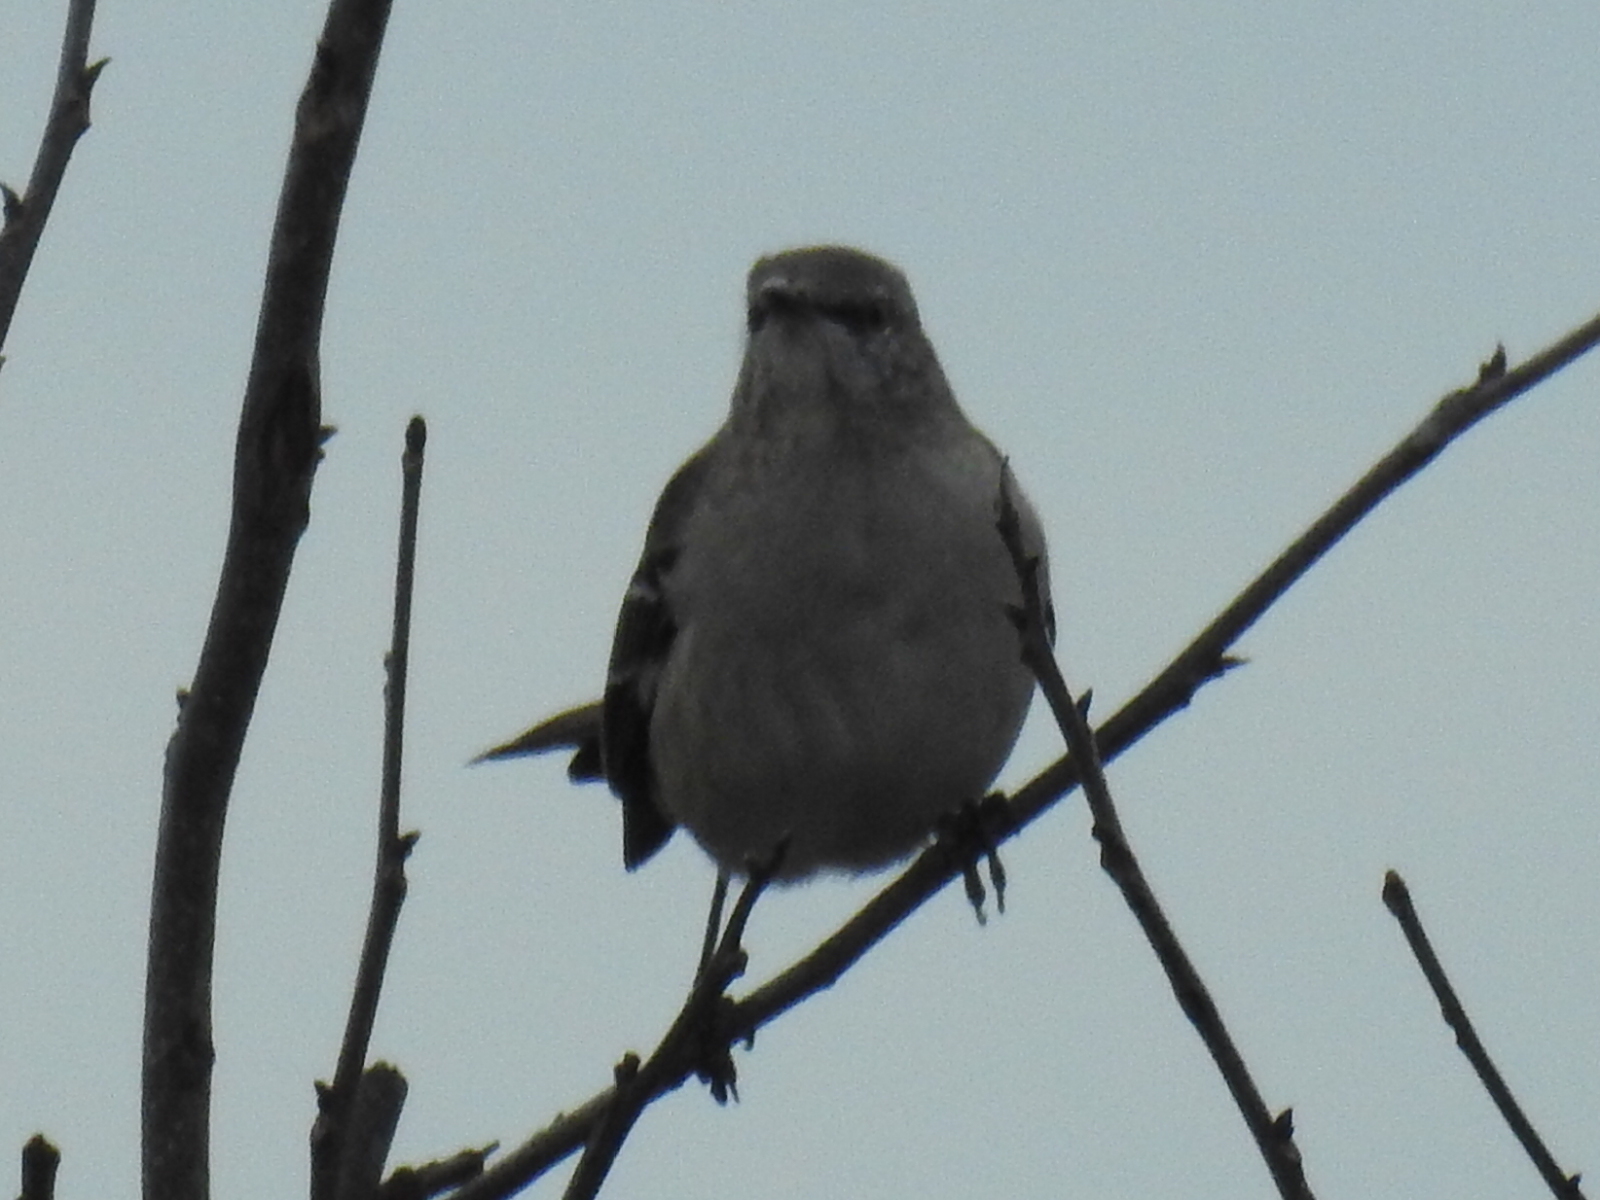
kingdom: Animalia
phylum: Chordata
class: Aves
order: Passeriformes
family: Mimidae
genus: Mimus
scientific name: Mimus polyglottos
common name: Northern mockingbird
